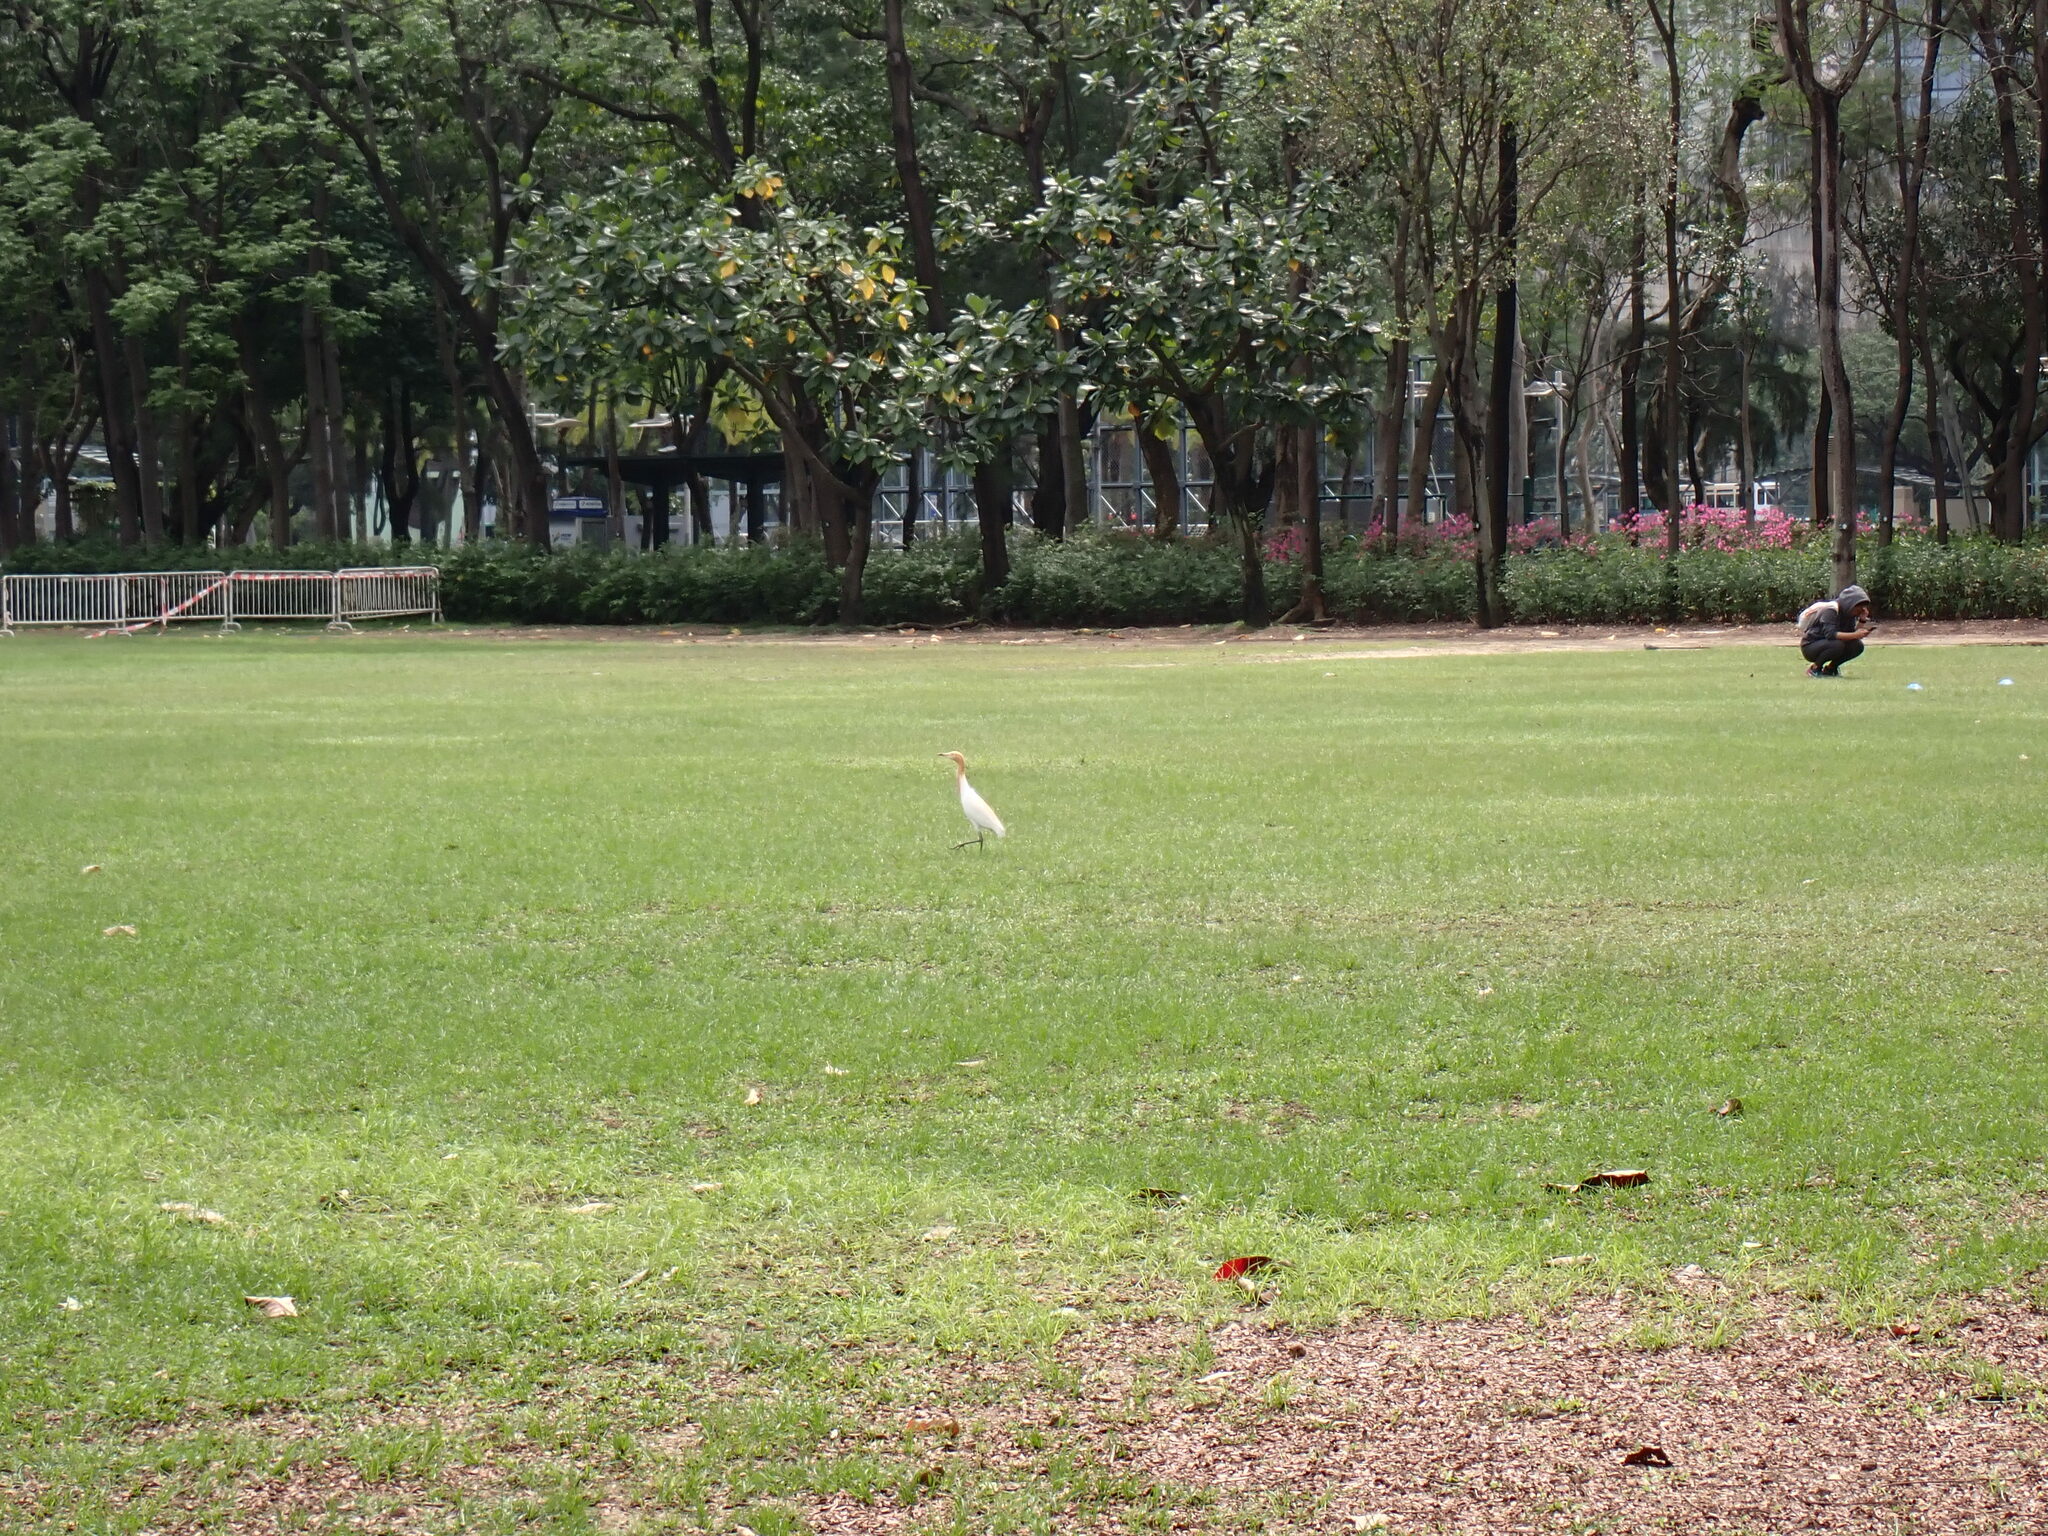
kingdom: Animalia
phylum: Chordata
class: Aves
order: Pelecaniformes
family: Ardeidae
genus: Bubulcus
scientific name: Bubulcus coromandus
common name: Eastern cattle egret
